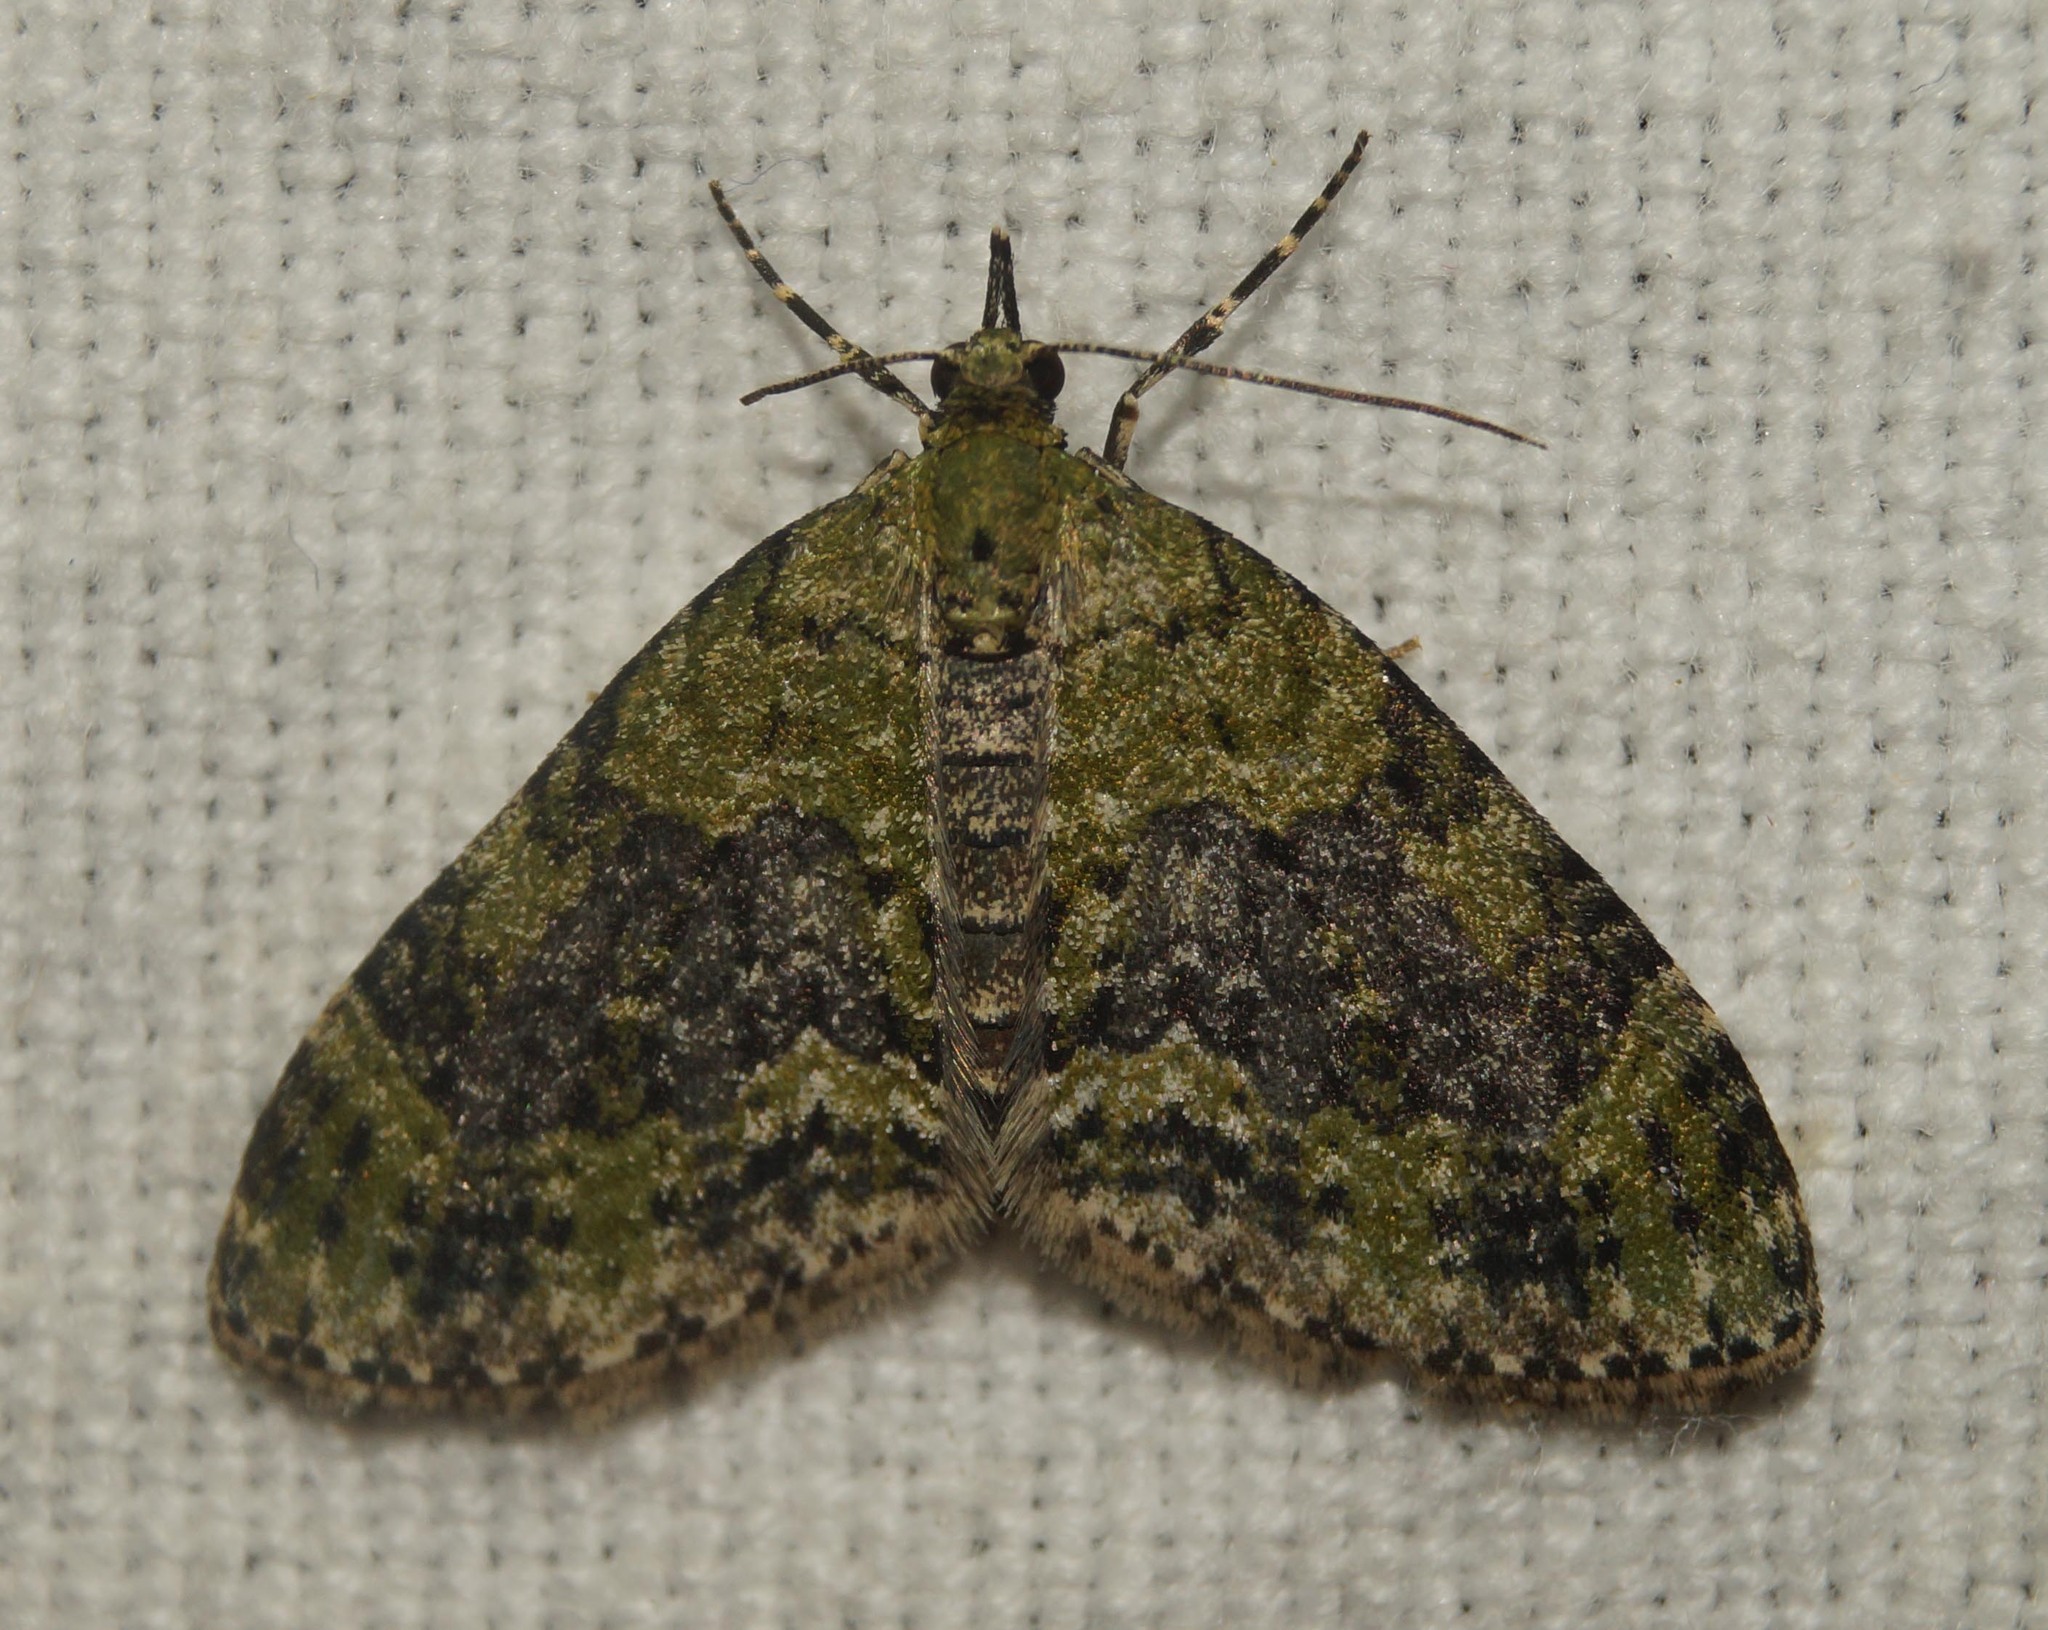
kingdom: Animalia
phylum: Arthropoda
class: Insecta
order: Lepidoptera
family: Geometridae
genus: Acasis
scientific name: Acasis viretata
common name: Yellow-barred brindle
